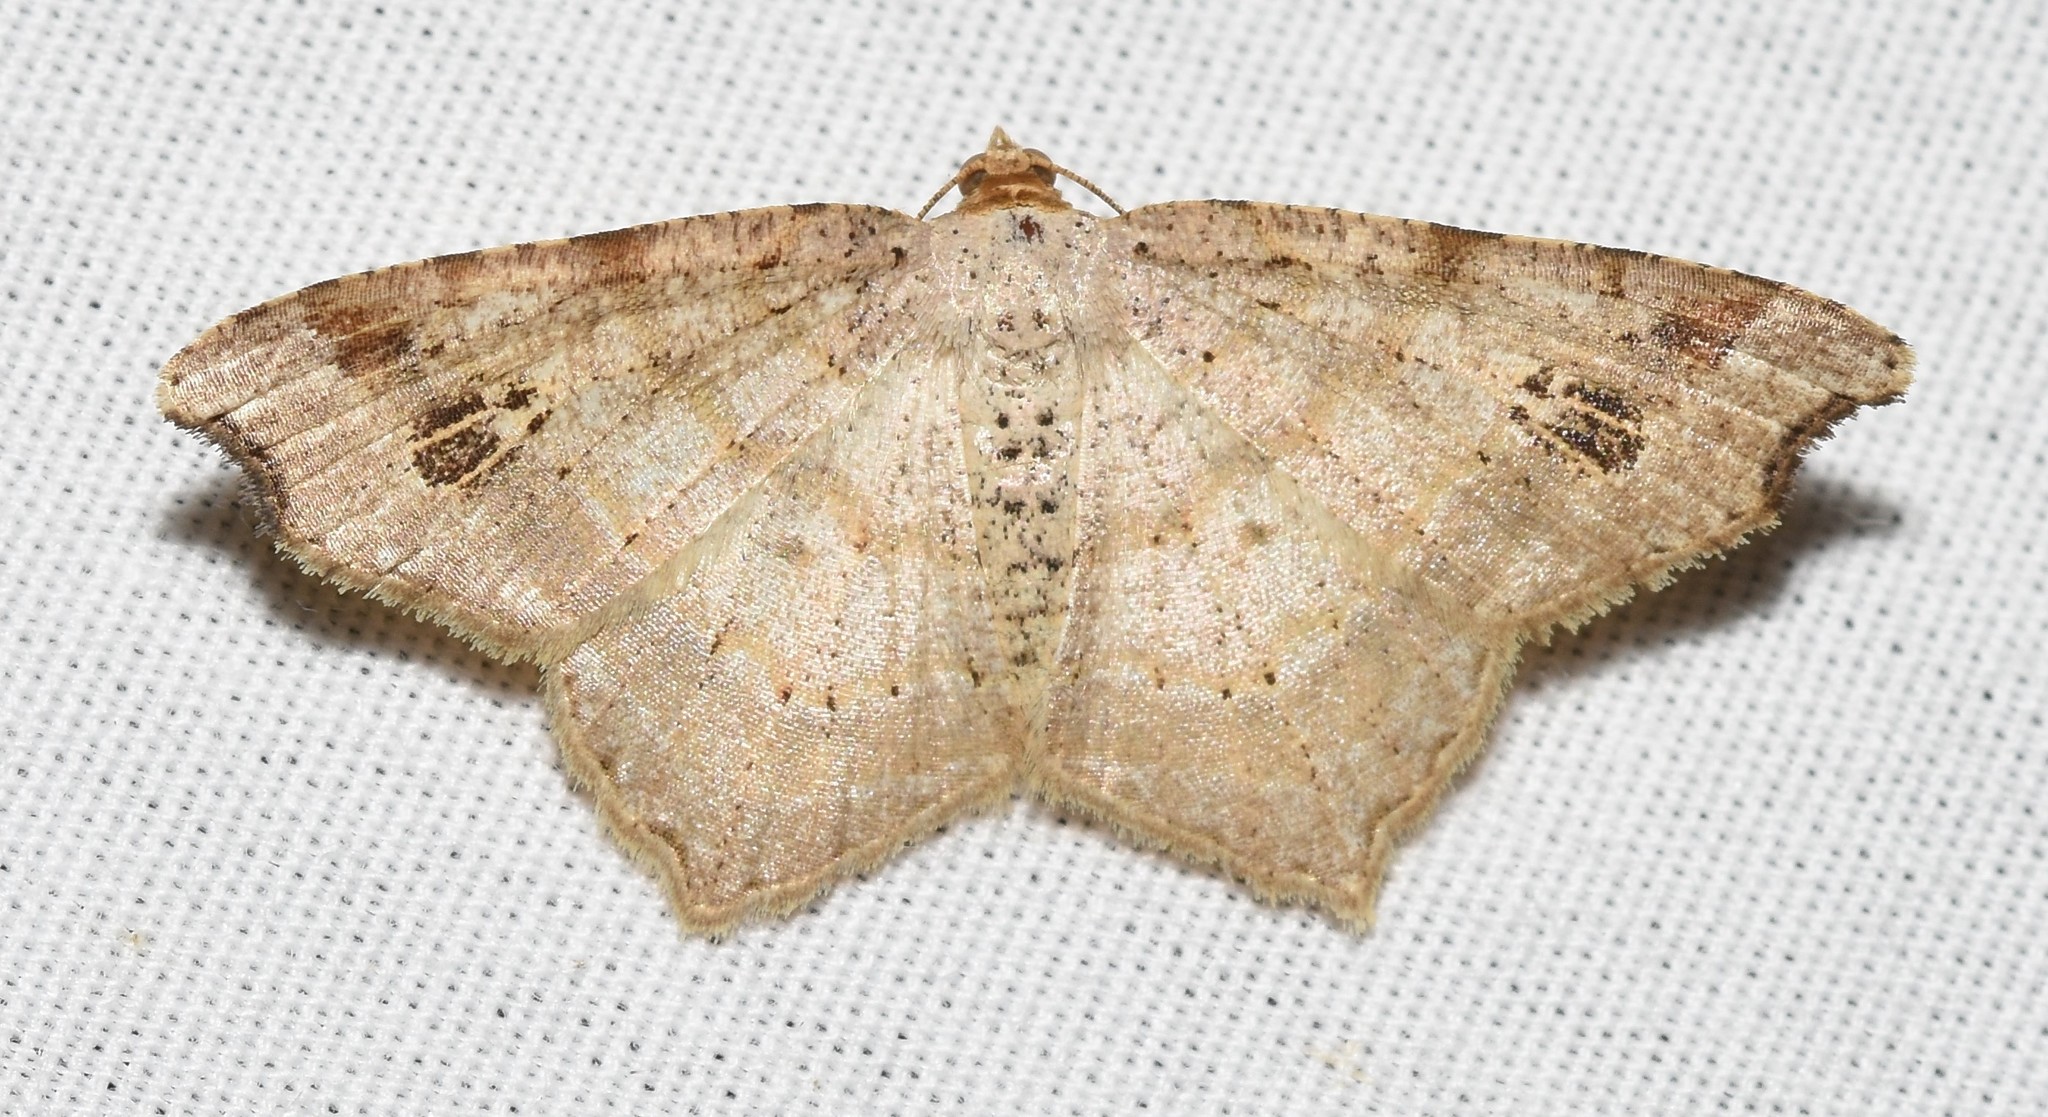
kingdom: Animalia
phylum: Arthropoda
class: Insecta
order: Lepidoptera
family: Geometridae
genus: Macaria
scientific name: Macaria aemulataria
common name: Common angle
